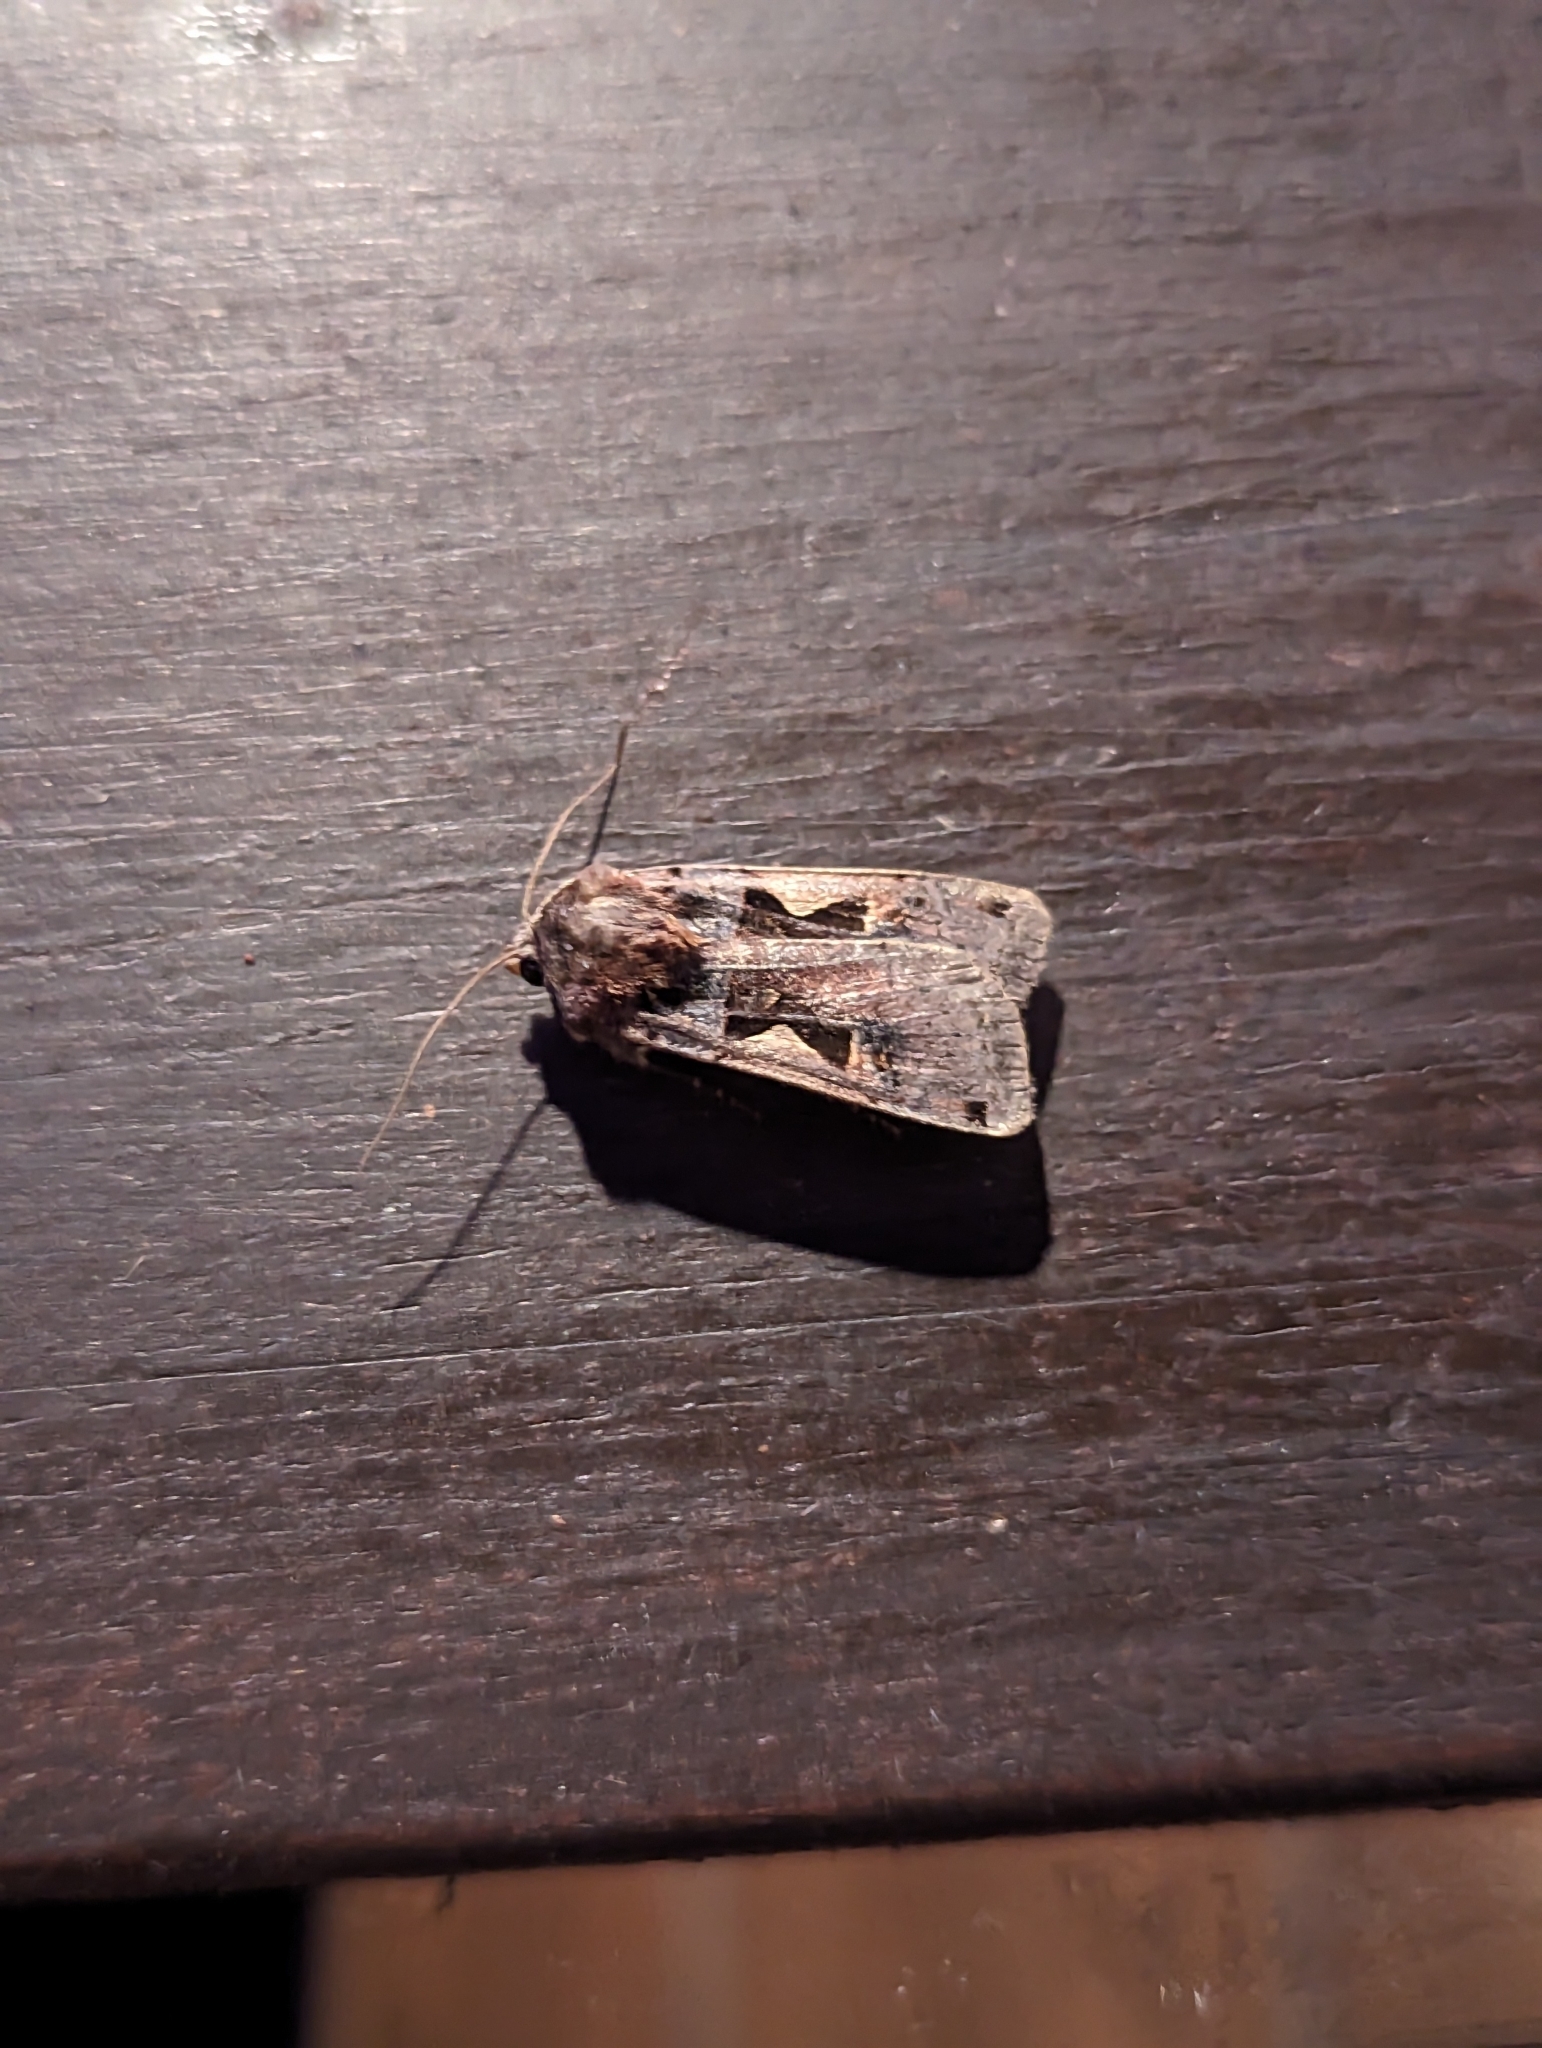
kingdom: Animalia
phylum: Arthropoda
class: Insecta
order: Lepidoptera
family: Noctuidae
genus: Xestia
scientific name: Xestia c-nigrum
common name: Setaceous hebrew character
